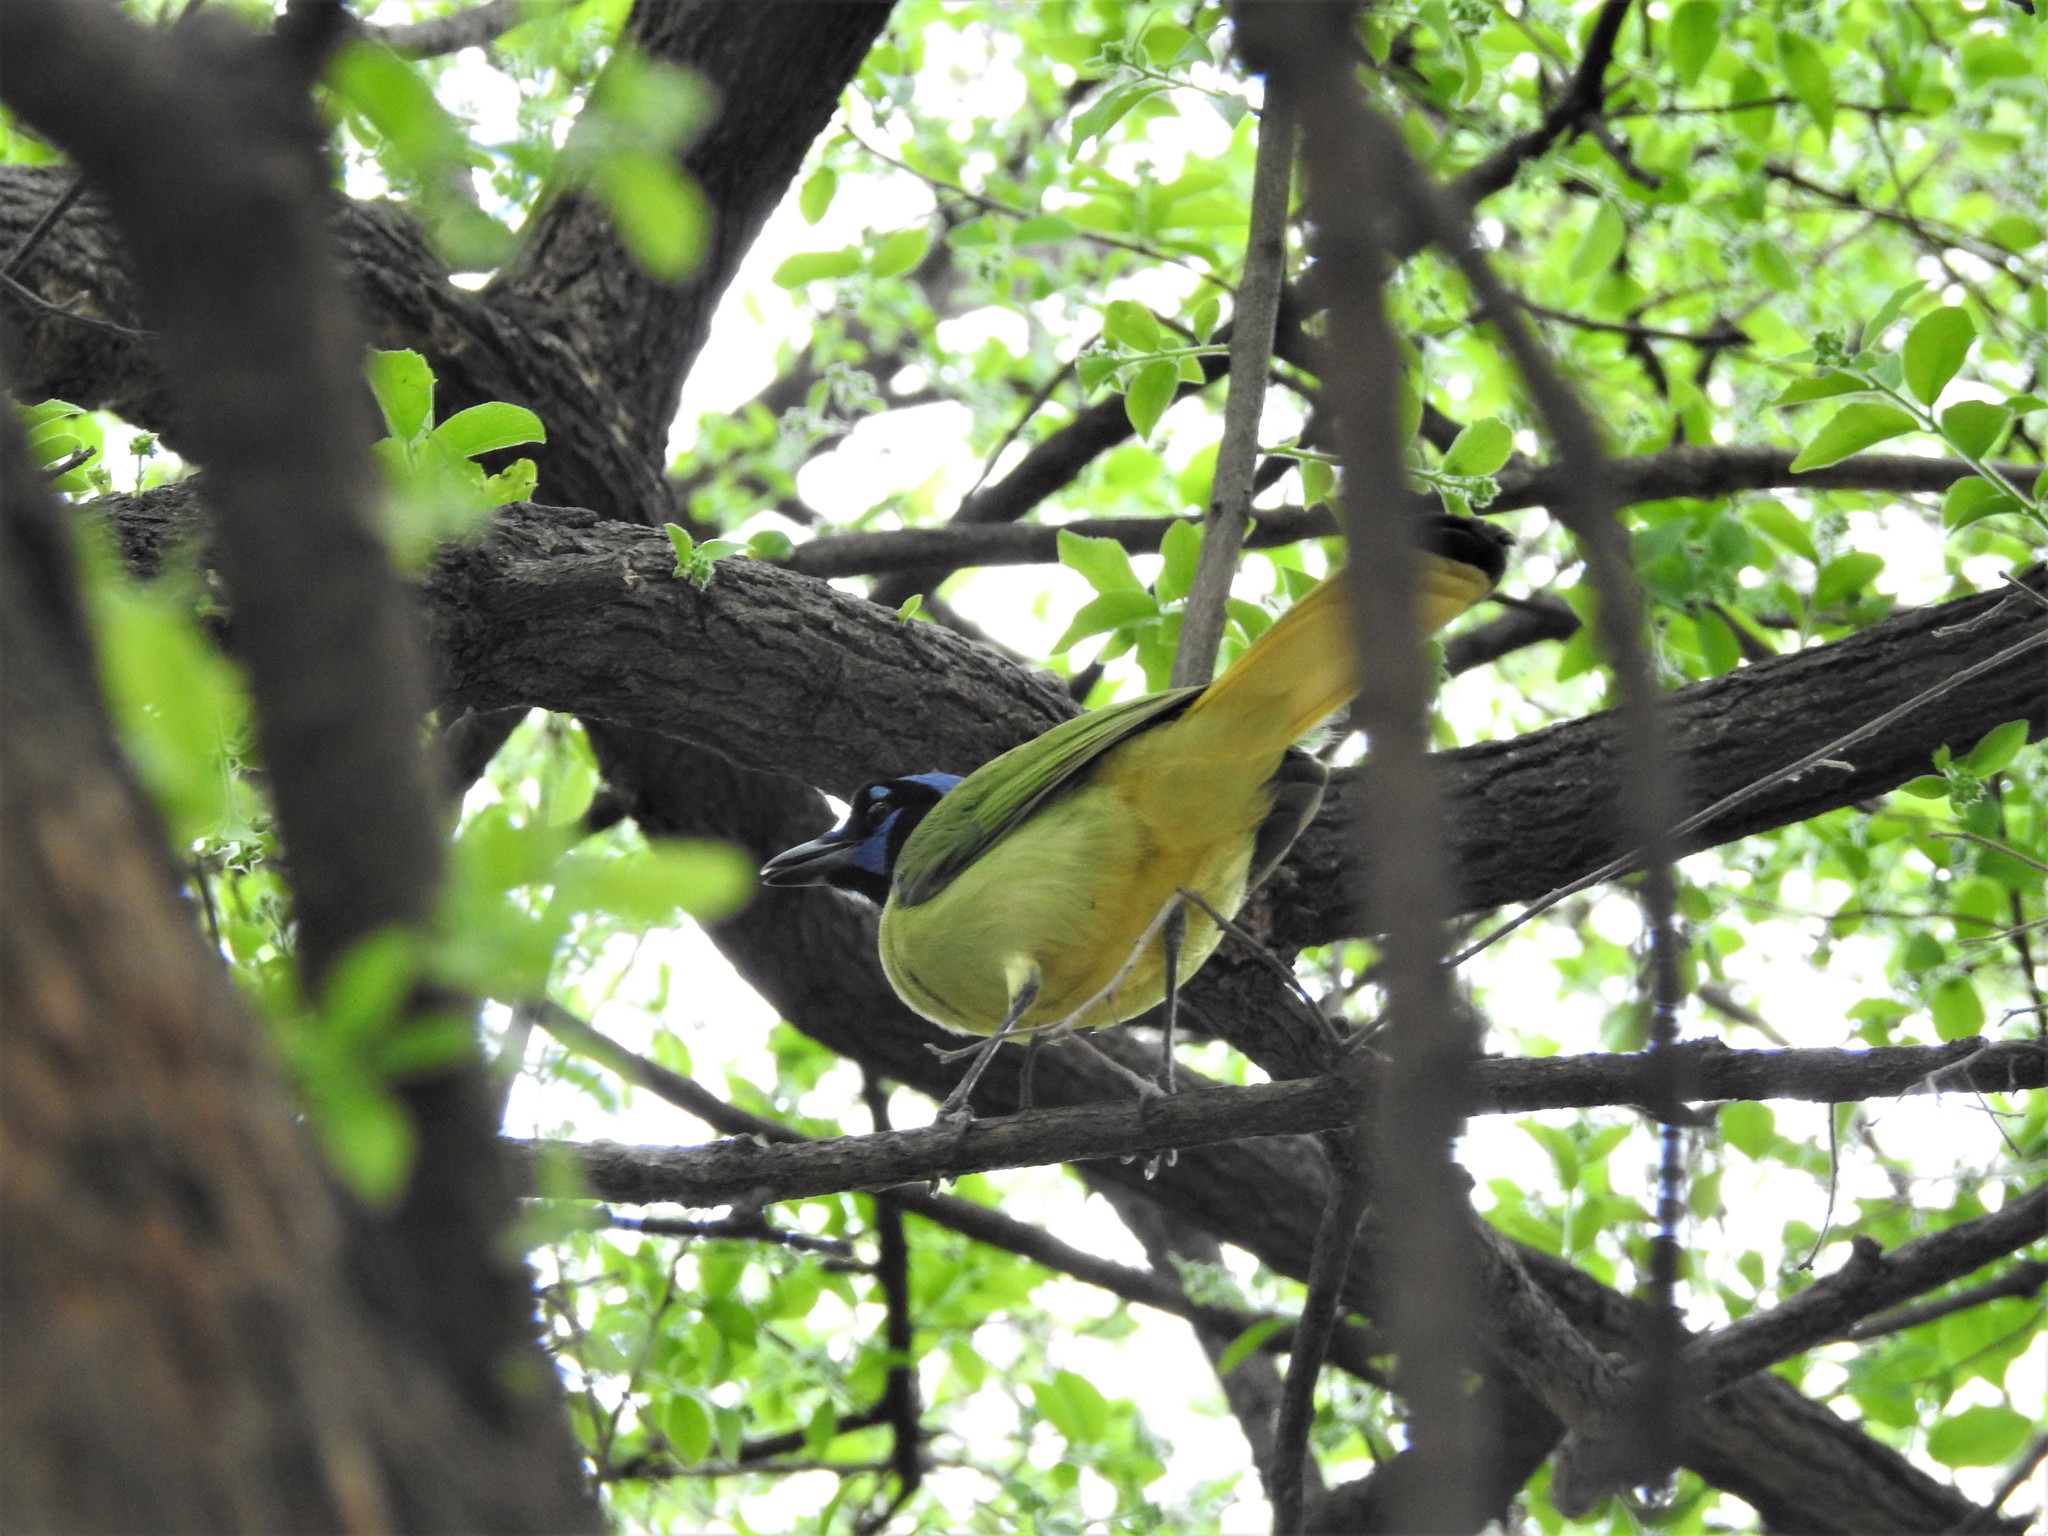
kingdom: Animalia
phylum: Chordata
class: Aves
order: Passeriformes
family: Corvidae
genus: Cyanocorax
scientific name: Cyanocorax yncas
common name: Green jay
